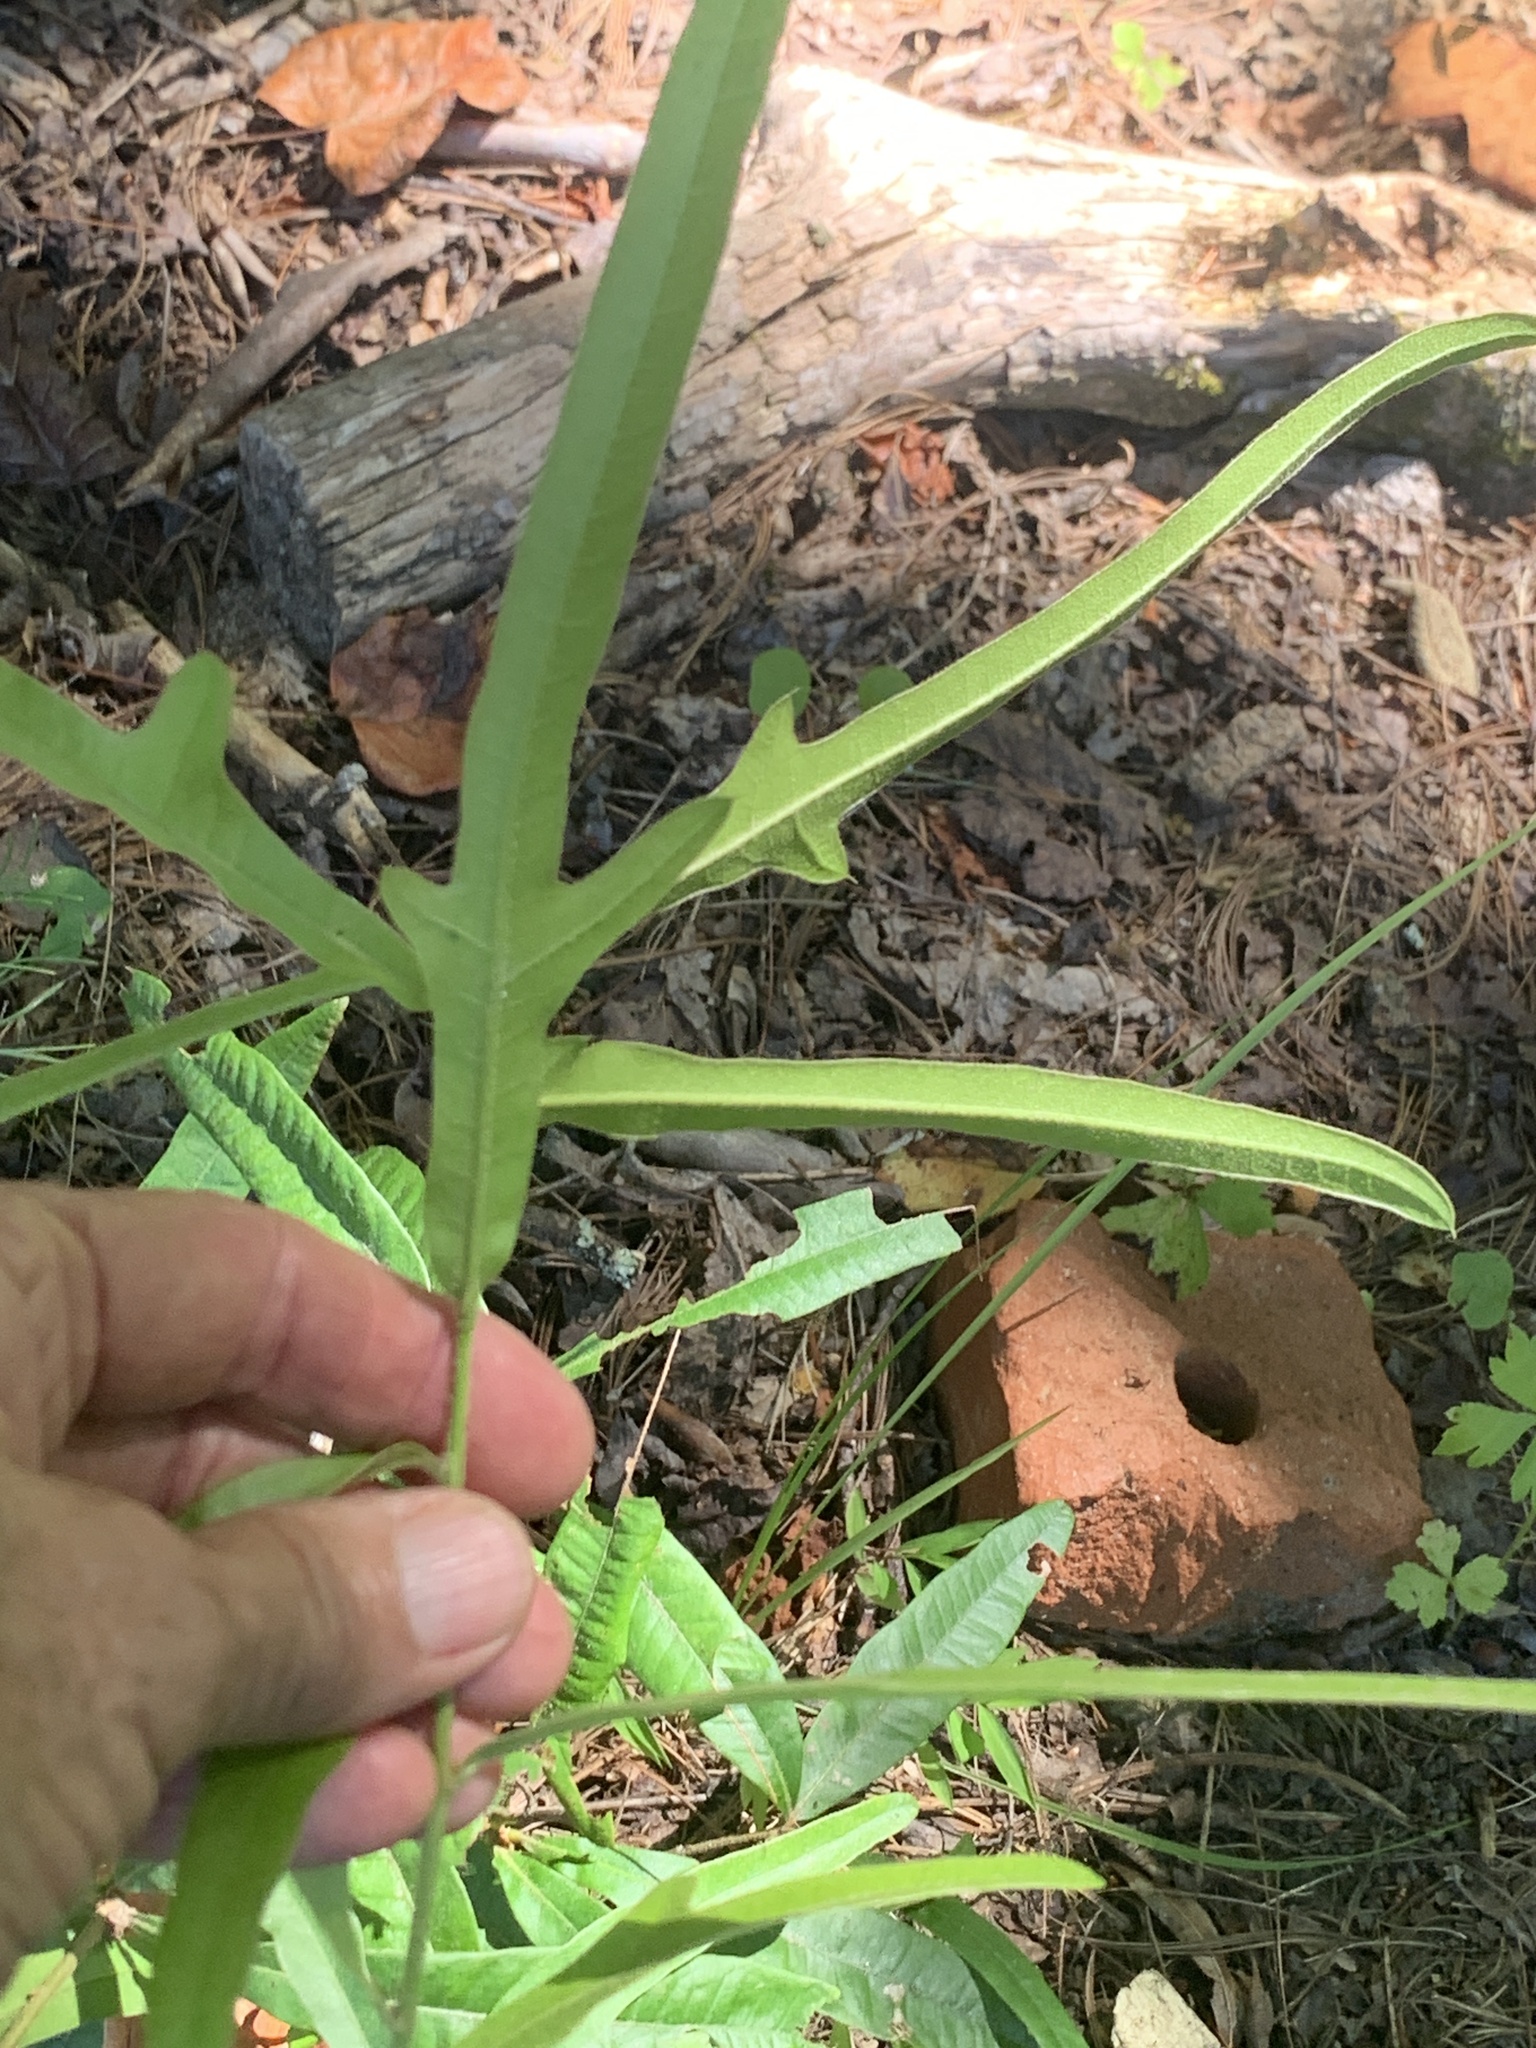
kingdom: Plantae
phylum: Tracheophyta
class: Magnoliopsida
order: Fagales
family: Fagaceae
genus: Quercus
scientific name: Quercus phellos
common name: Willow oak
